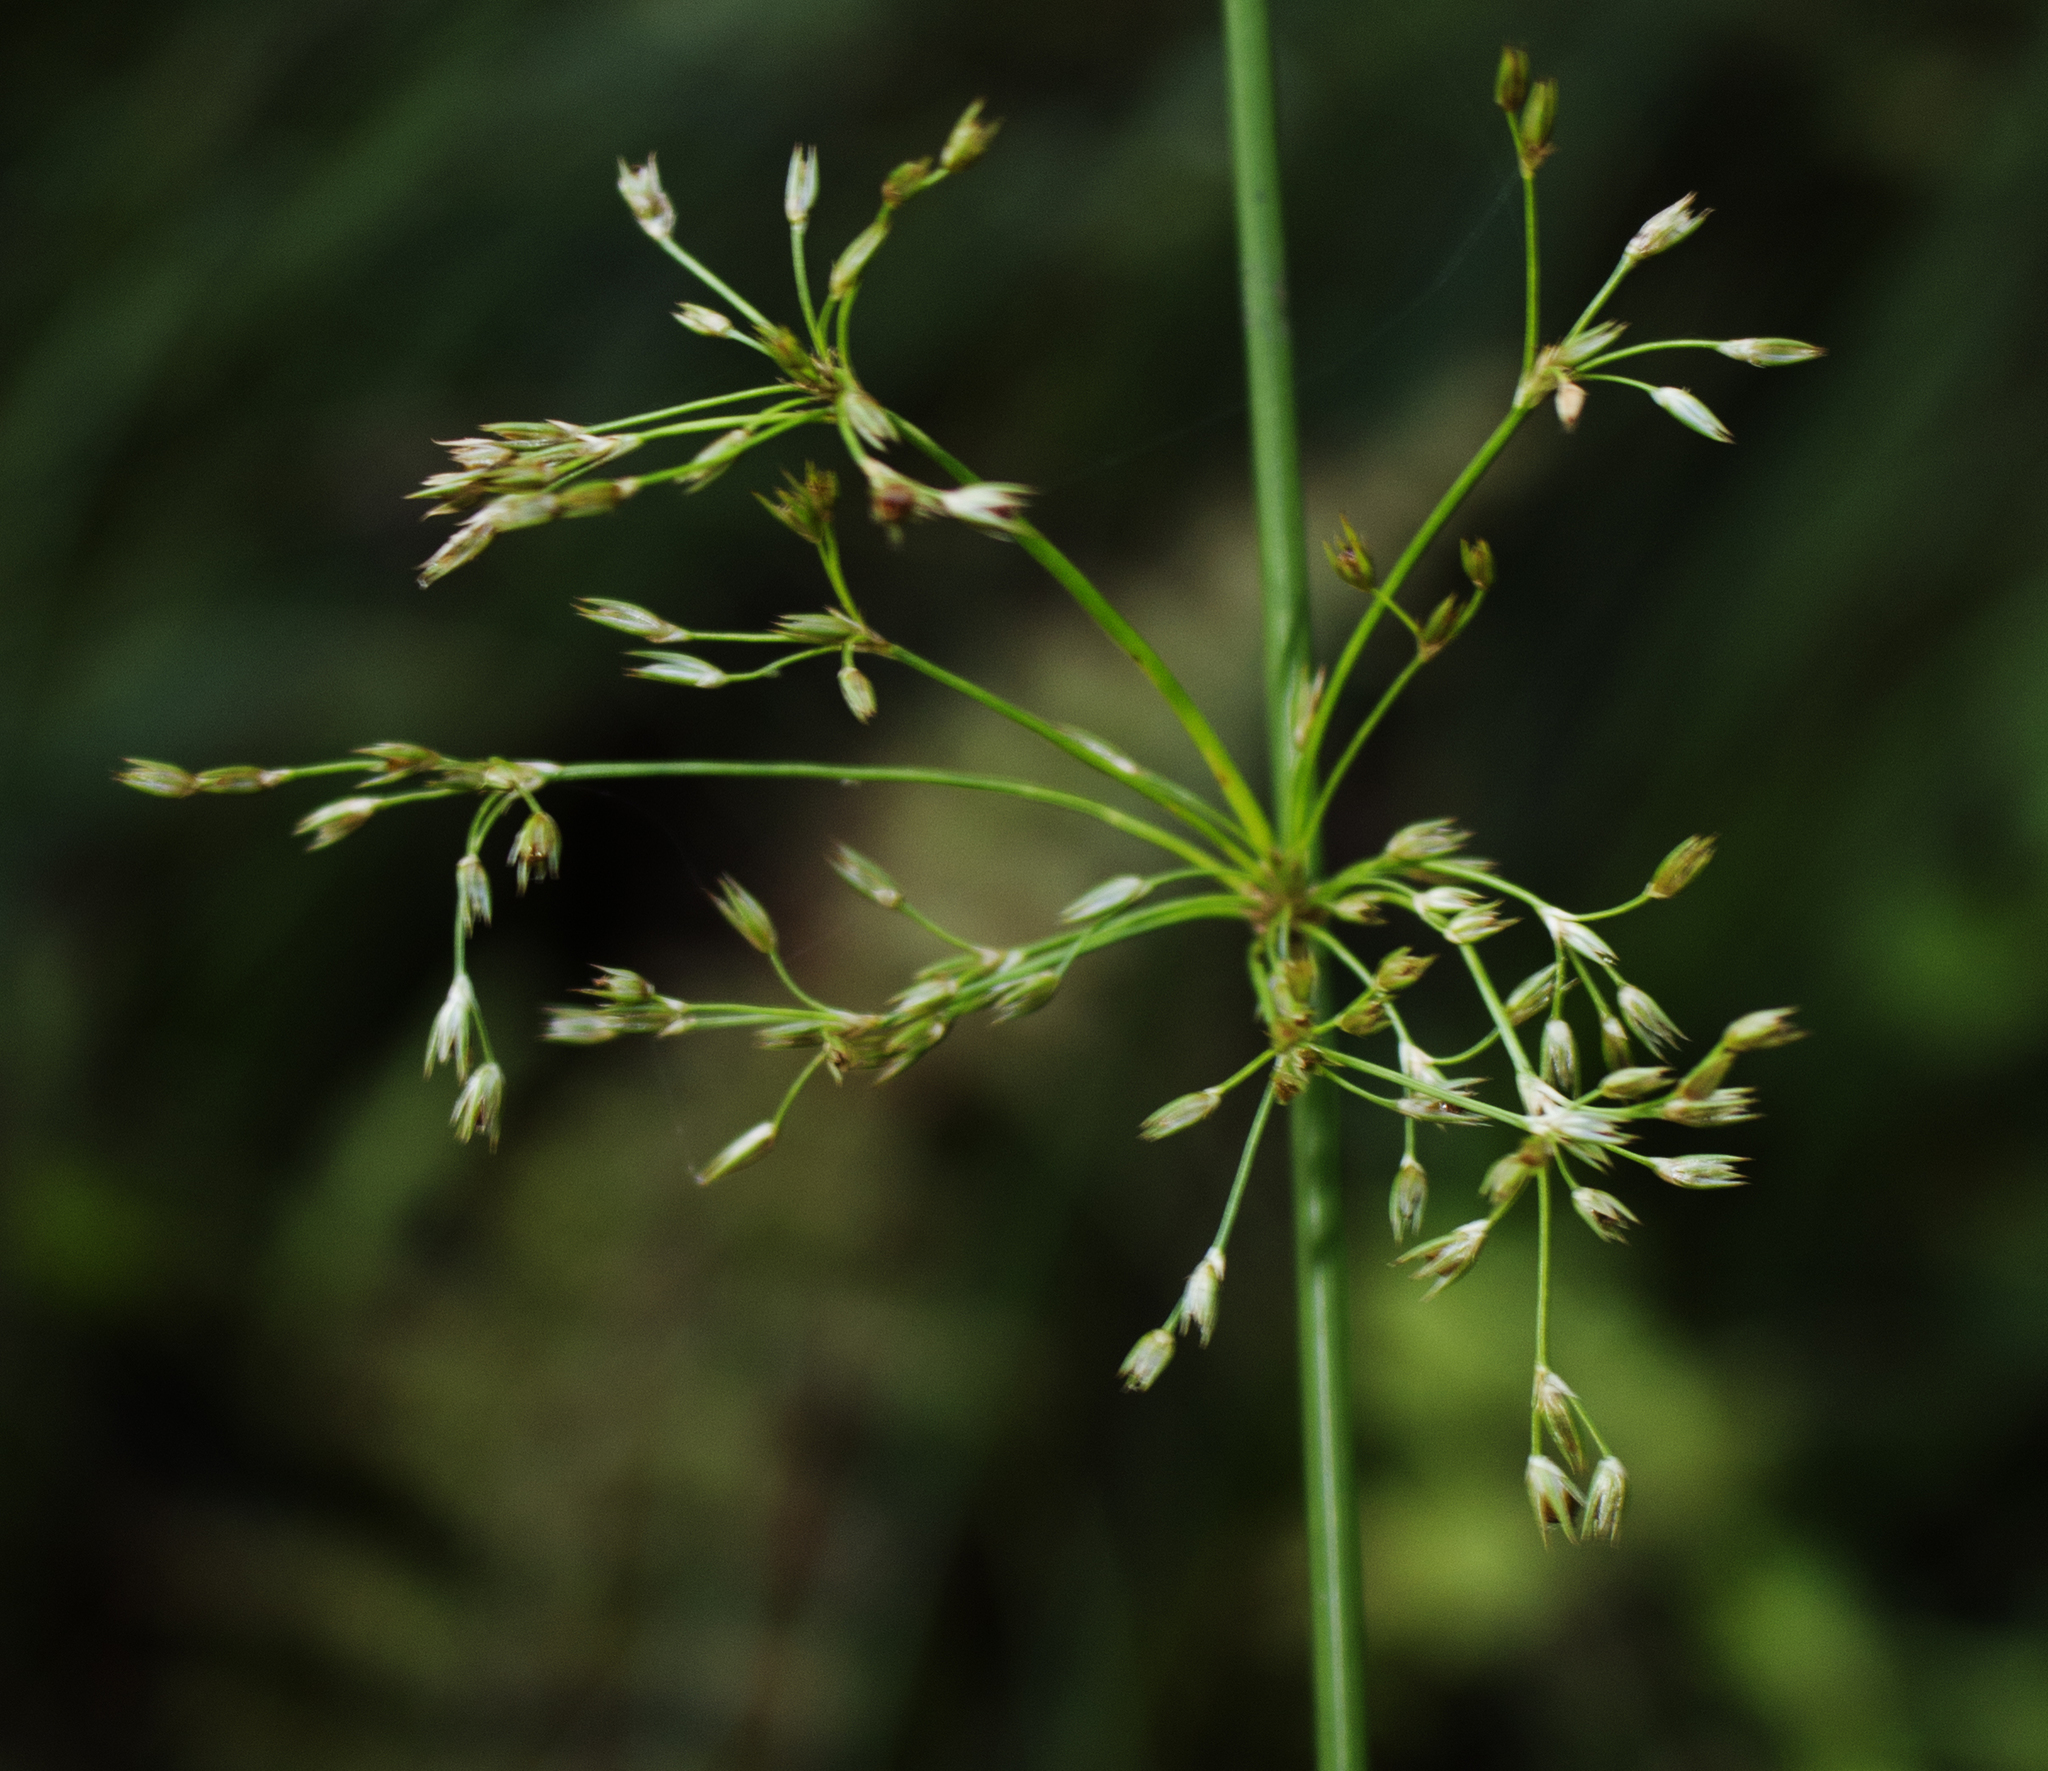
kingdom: Plantae
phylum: Tracheophyta
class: Liliopsida
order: Poales
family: Juncaceae
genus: Juncus
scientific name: Juncus effusus
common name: Soft rush
